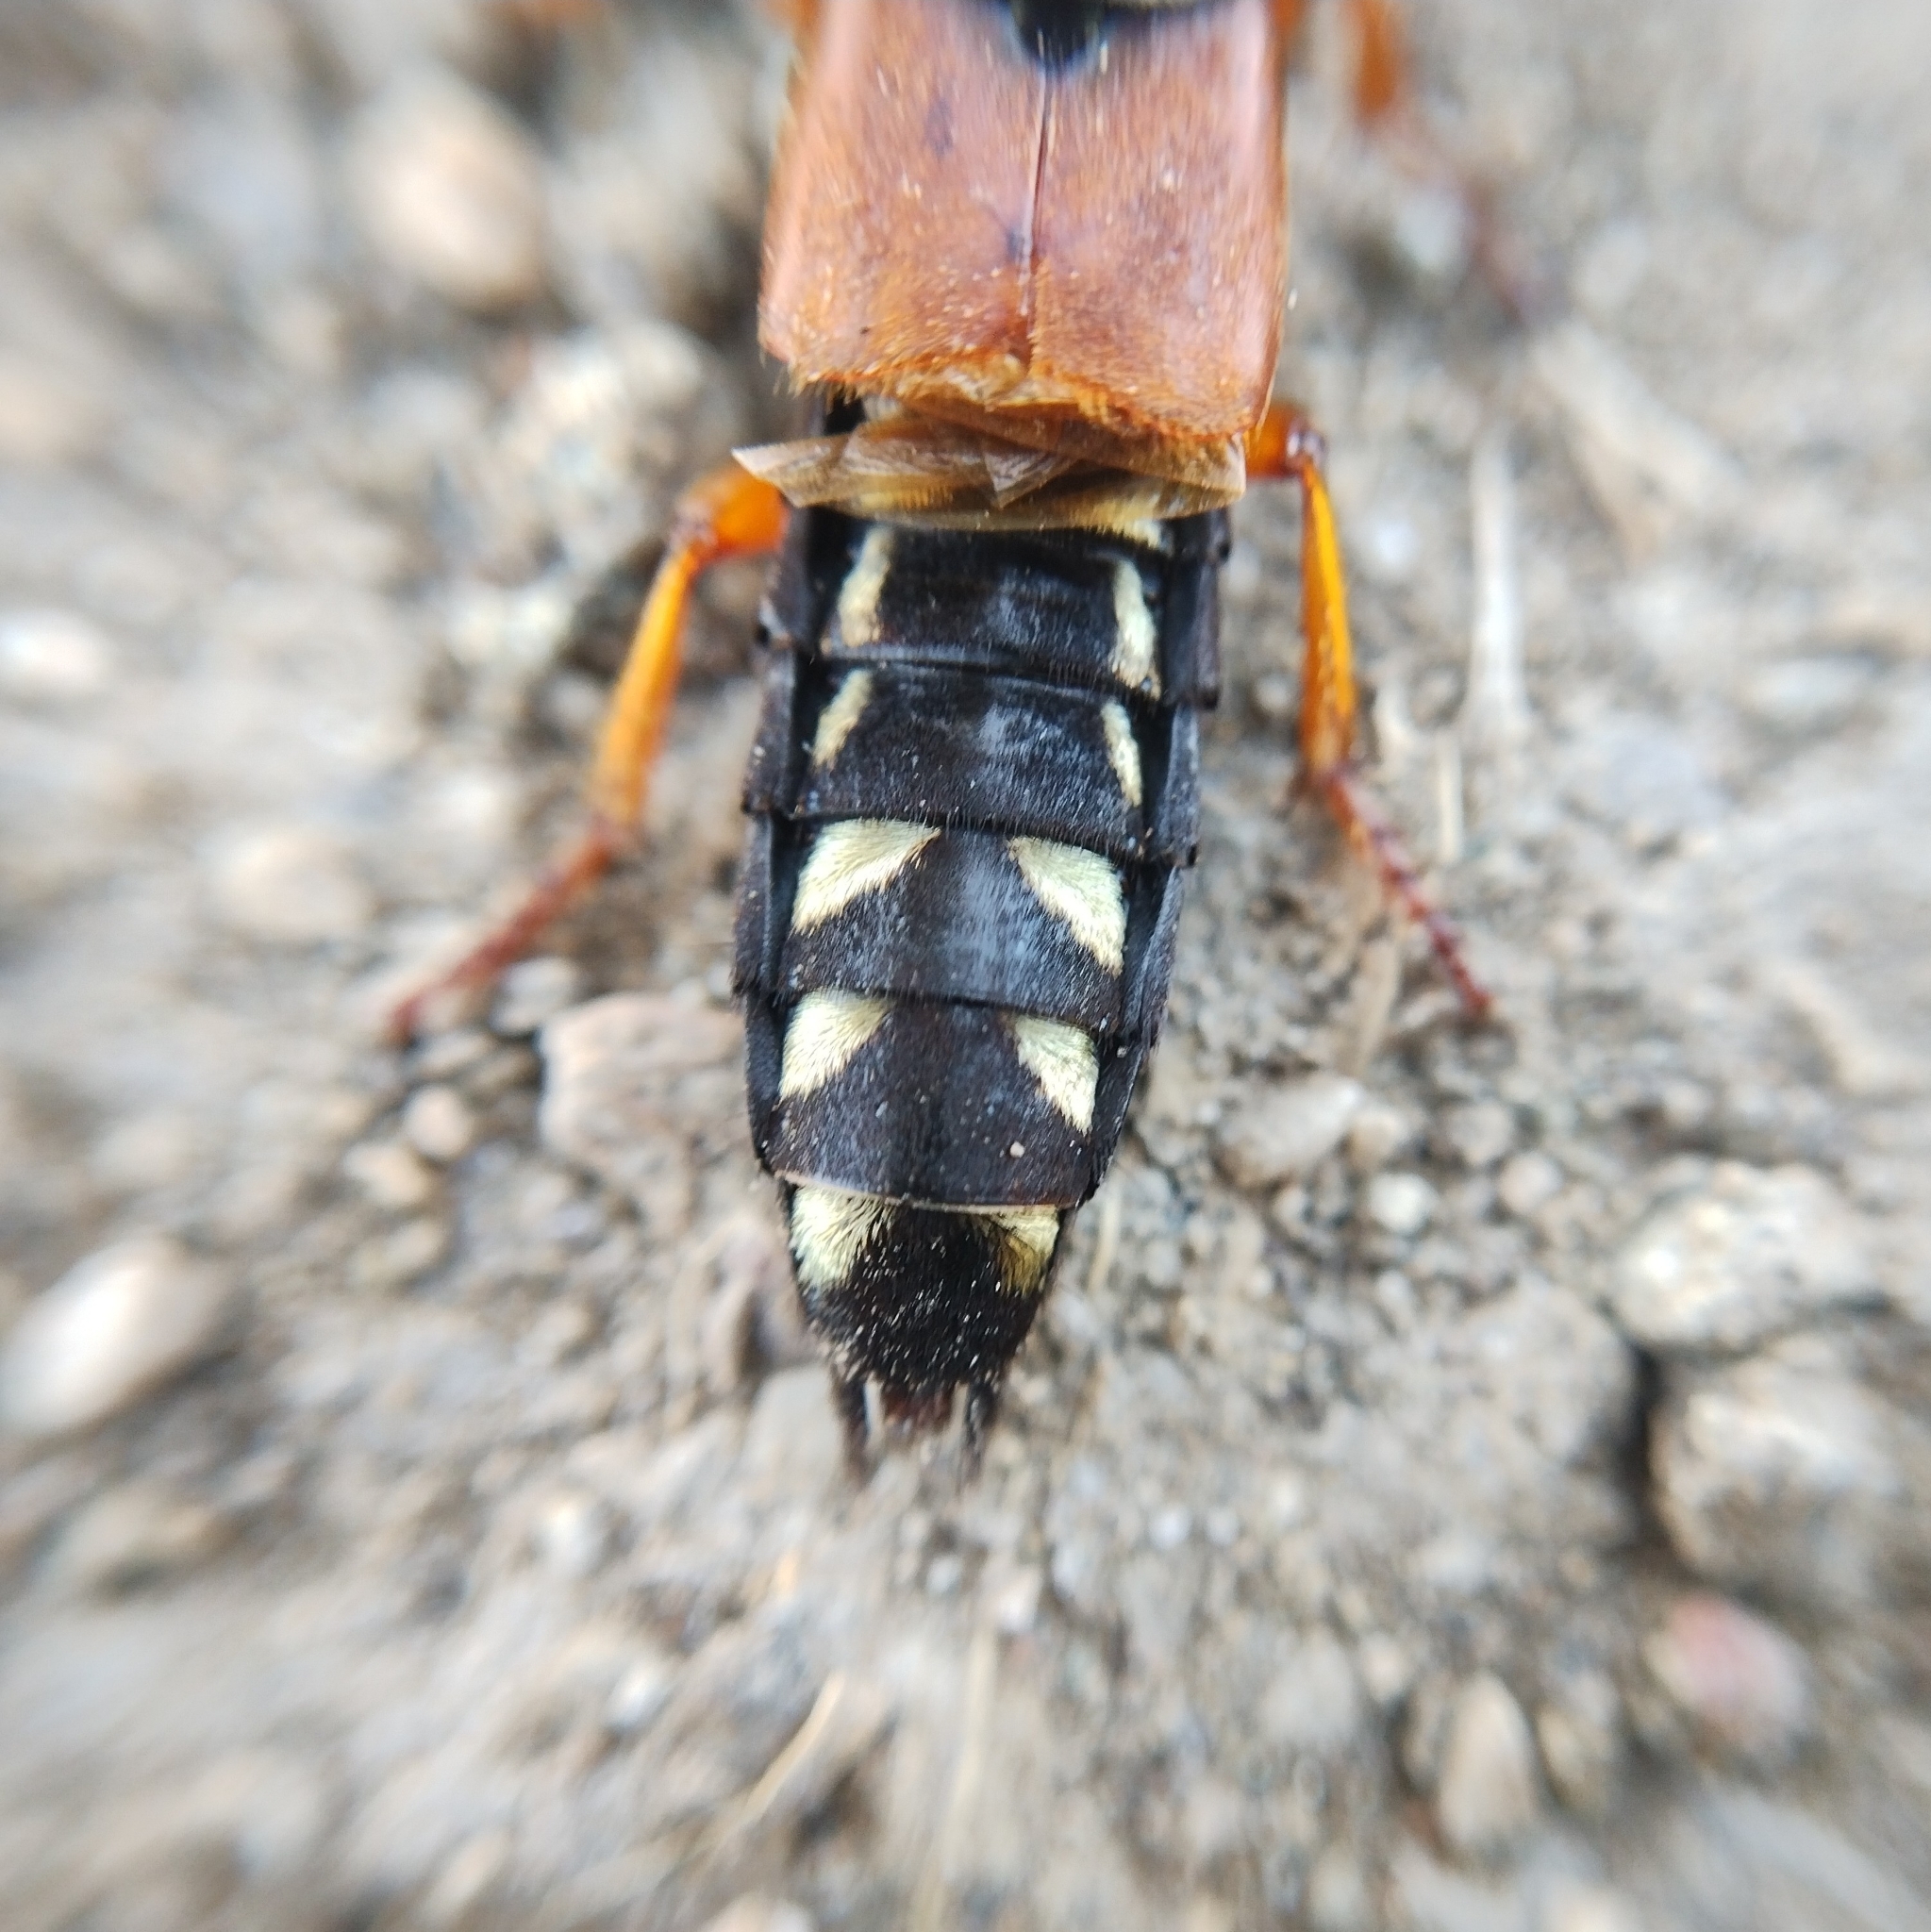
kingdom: Animalia
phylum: Arthropoda
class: Insecta
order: Coleoptera
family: Staphylinidae
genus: Staphylinus
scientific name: Staphylinus caesareus
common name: Staph beetle
